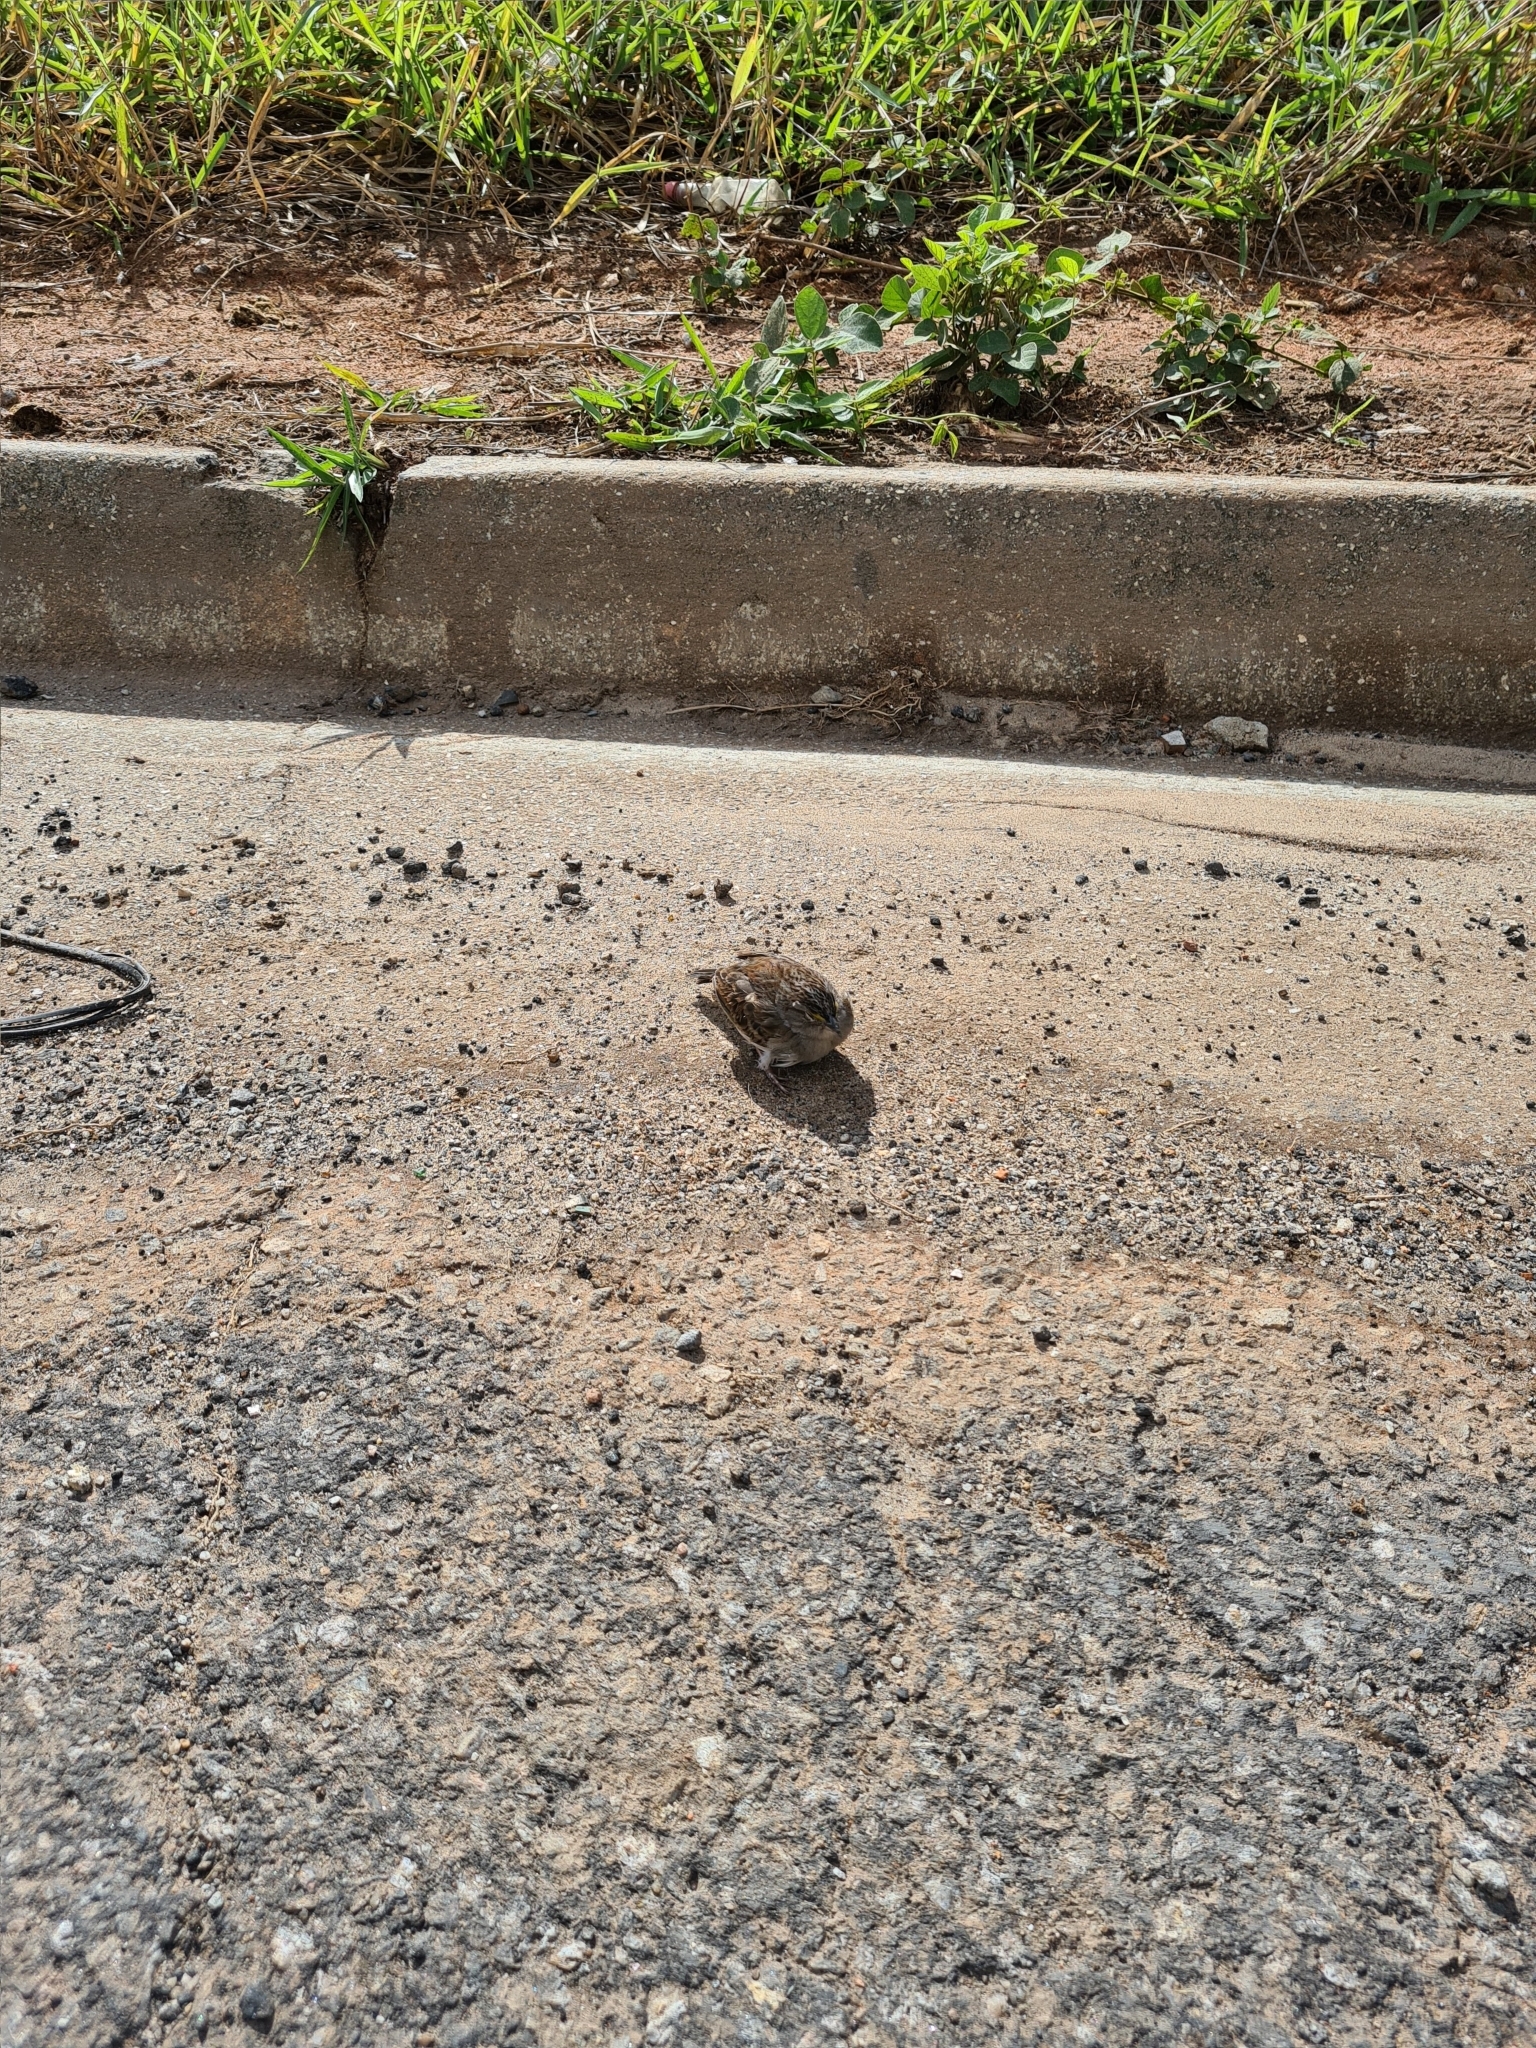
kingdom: Animalia
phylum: Chordata
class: Aves
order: Passeriformes
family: Passerellidae
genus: Ammodramus
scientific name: Ammodramus humeralis
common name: Grassland sparrow
